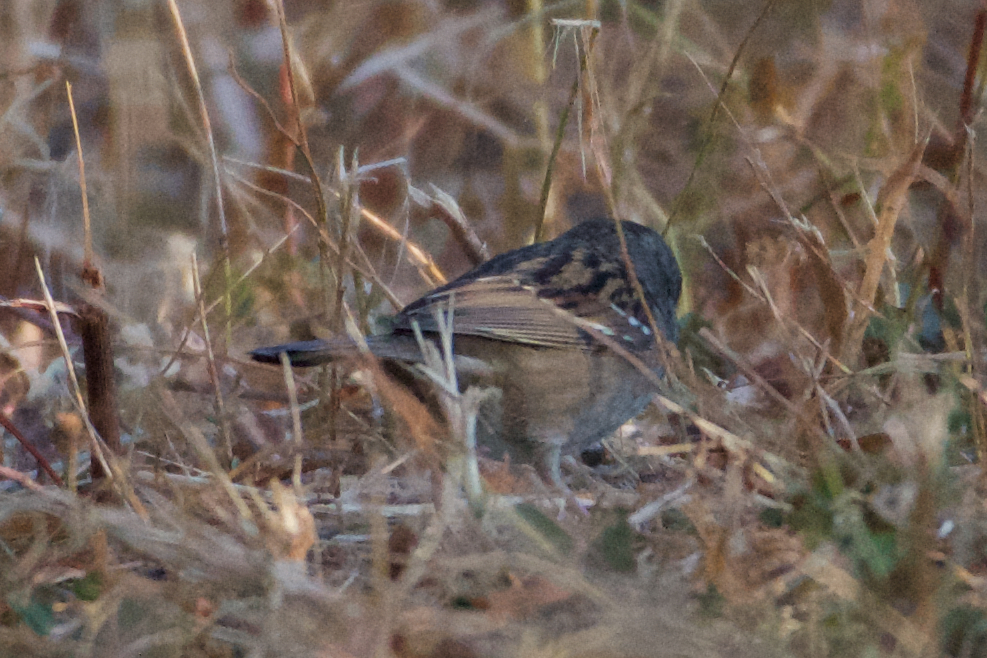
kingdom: Animalia
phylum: Chordata
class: Aves
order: Passeriformes
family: Passerellidae
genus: Zonotrichia
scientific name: Zonotrichia atricapilla
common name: Golden-crowned sparrow
